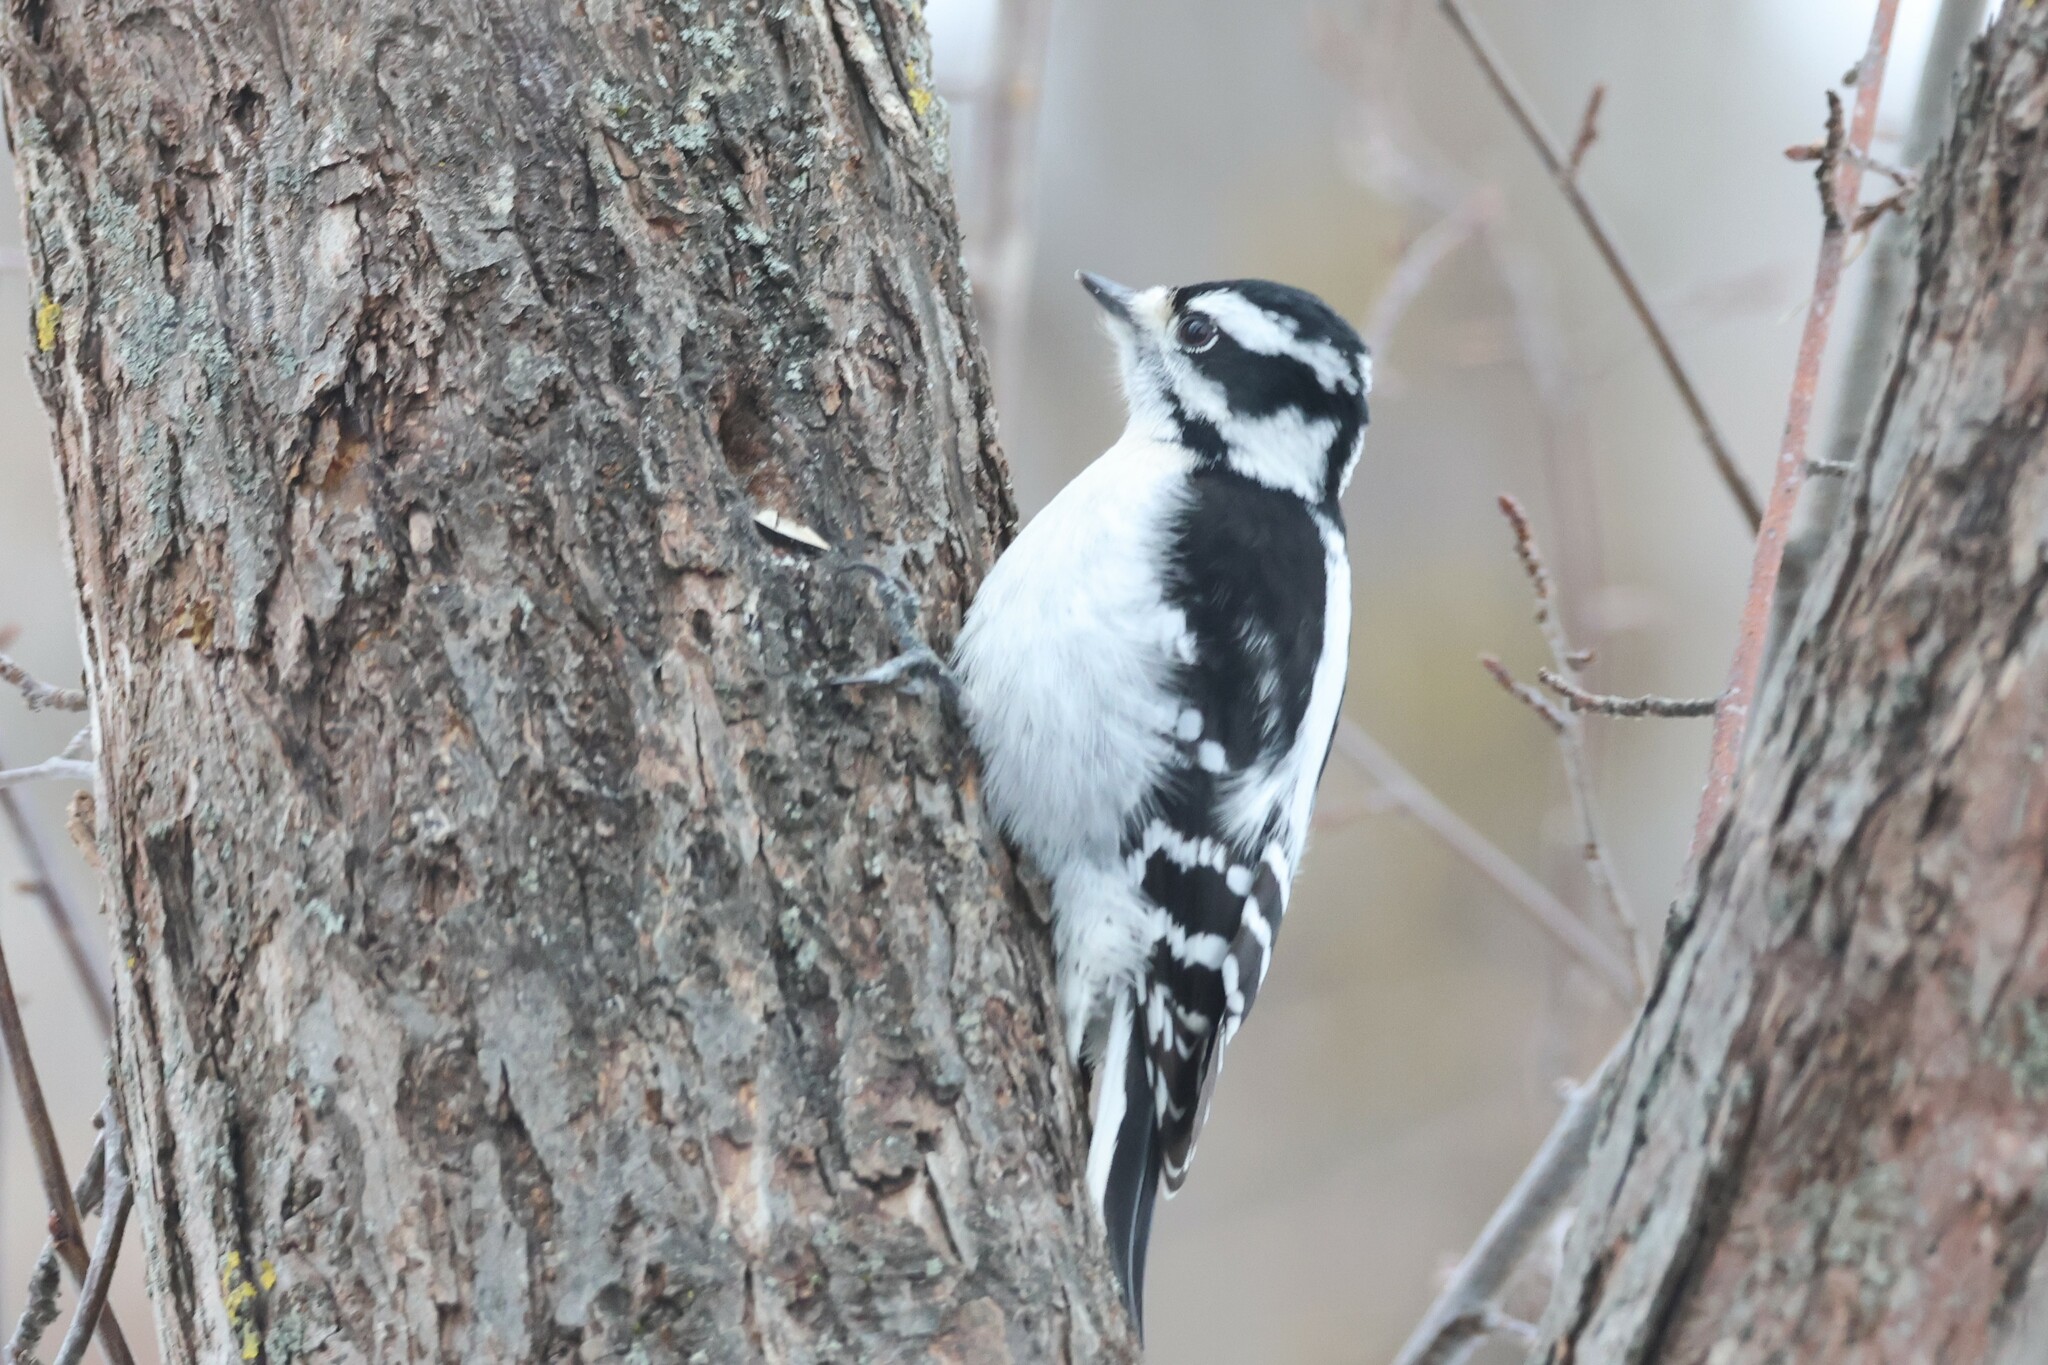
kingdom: Animalia
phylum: Chordata
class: Aves
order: Piciformes
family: Picidae
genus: Dryobates
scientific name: Dryobates pubescens
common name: Downy woodpecker
